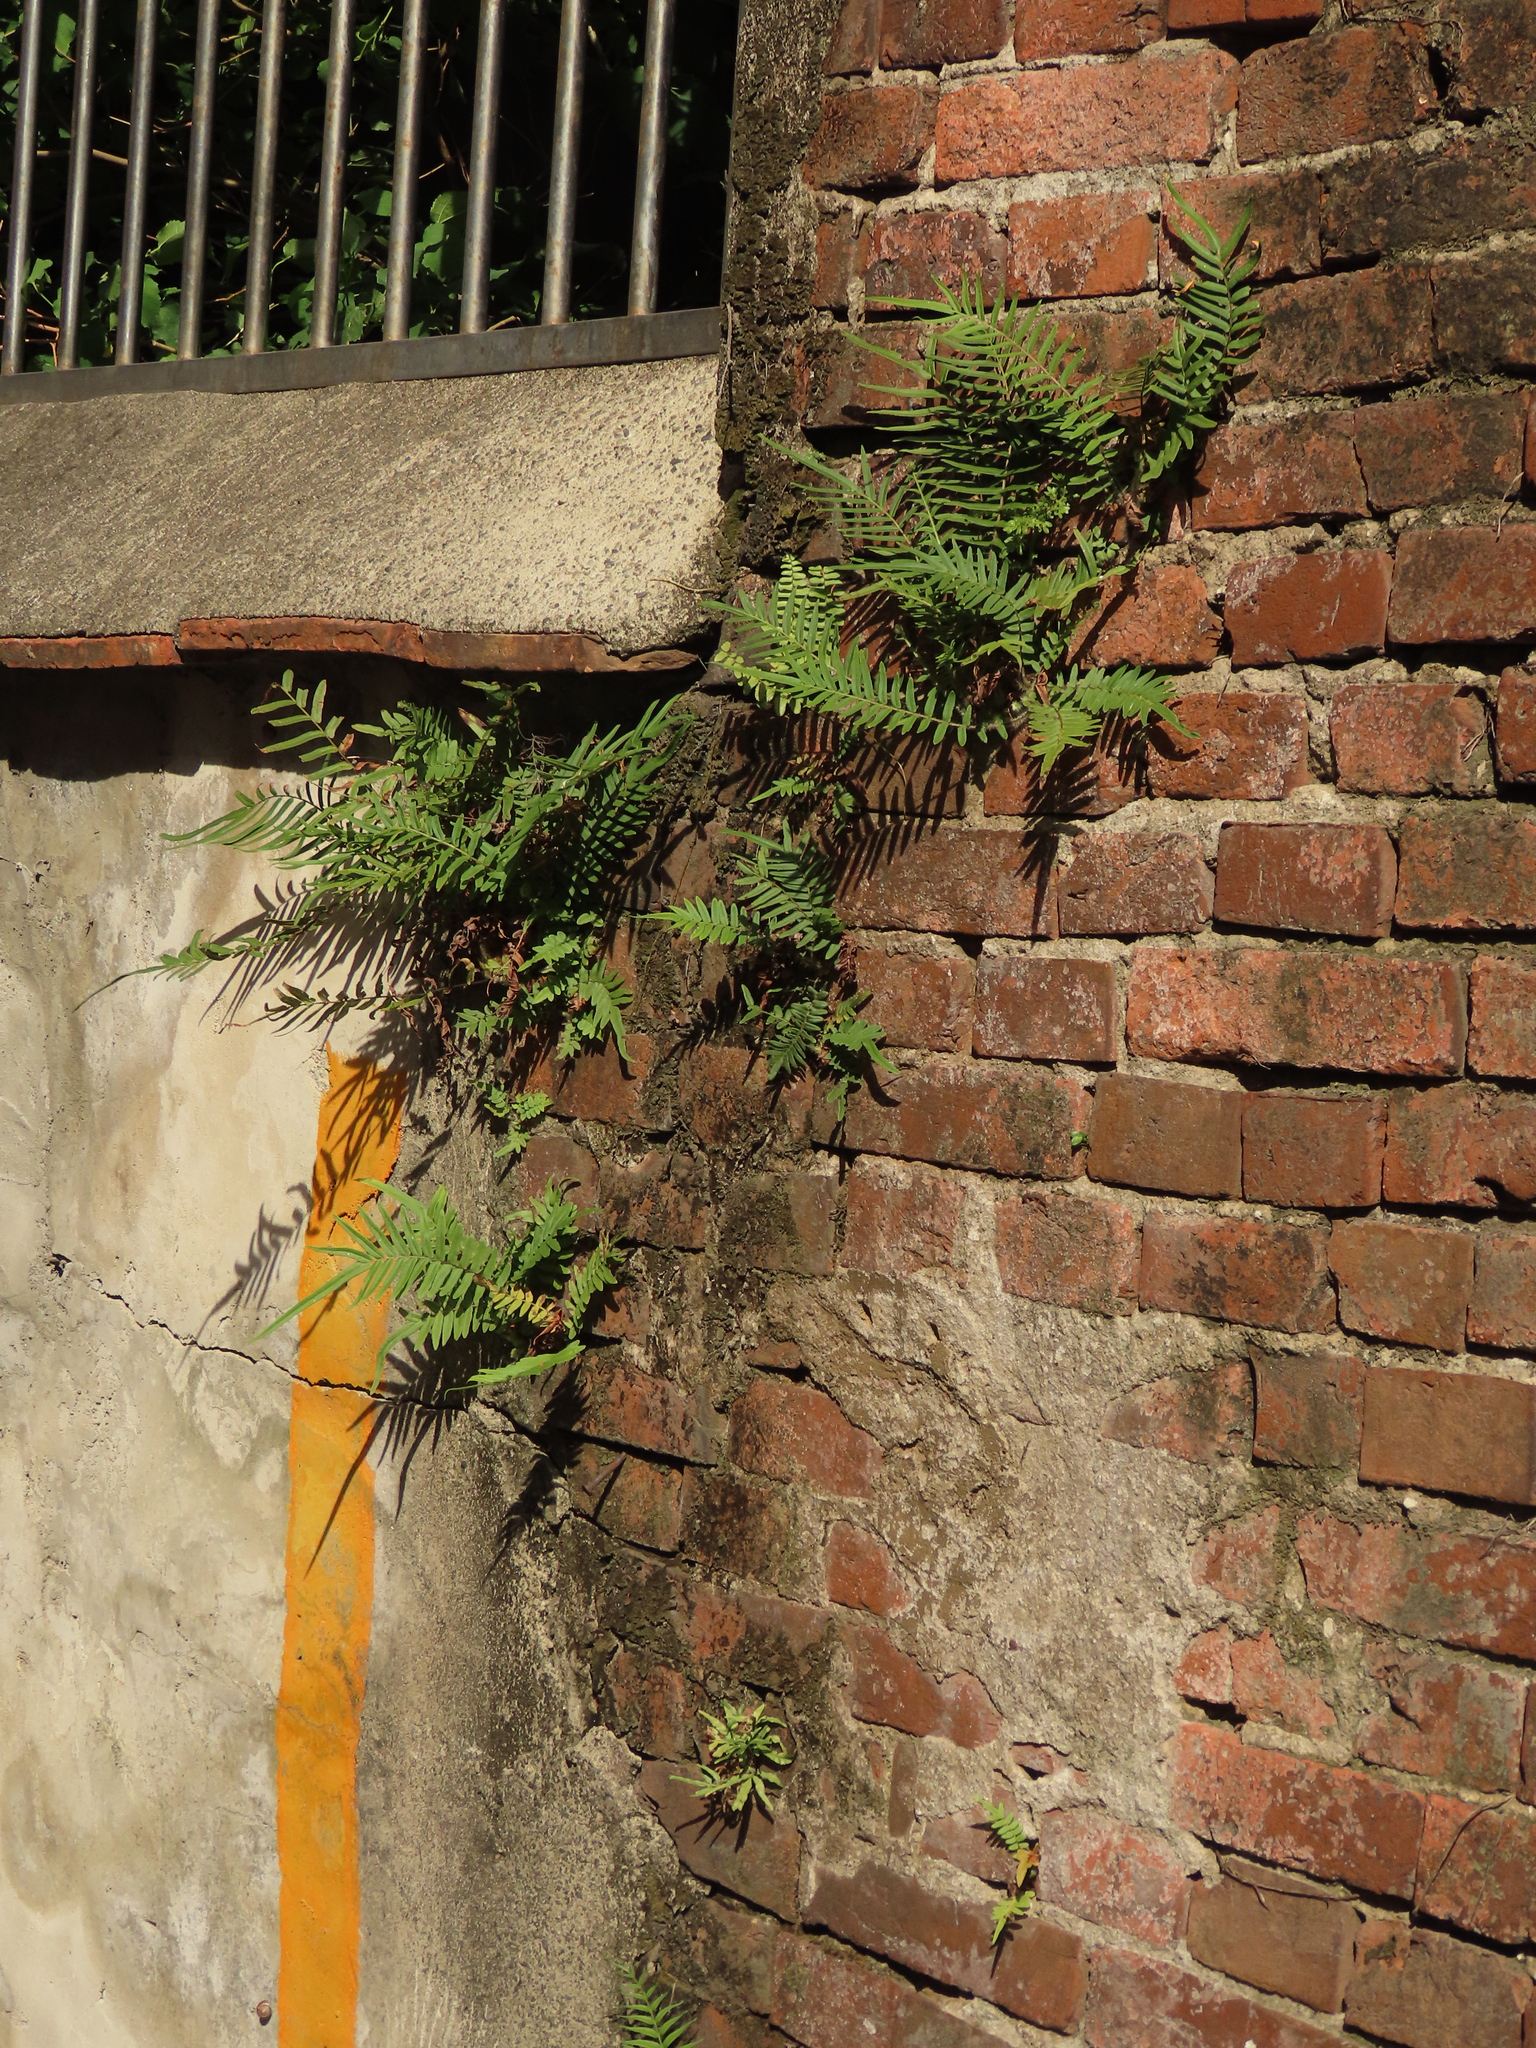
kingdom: Plantae
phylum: Tracheophyta
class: Polypodiopsida
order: Polypodiales
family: Nephrolepidaceae
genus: Nephrolepis
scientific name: Nephrolepis cordifolia
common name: Narrow swordfern
